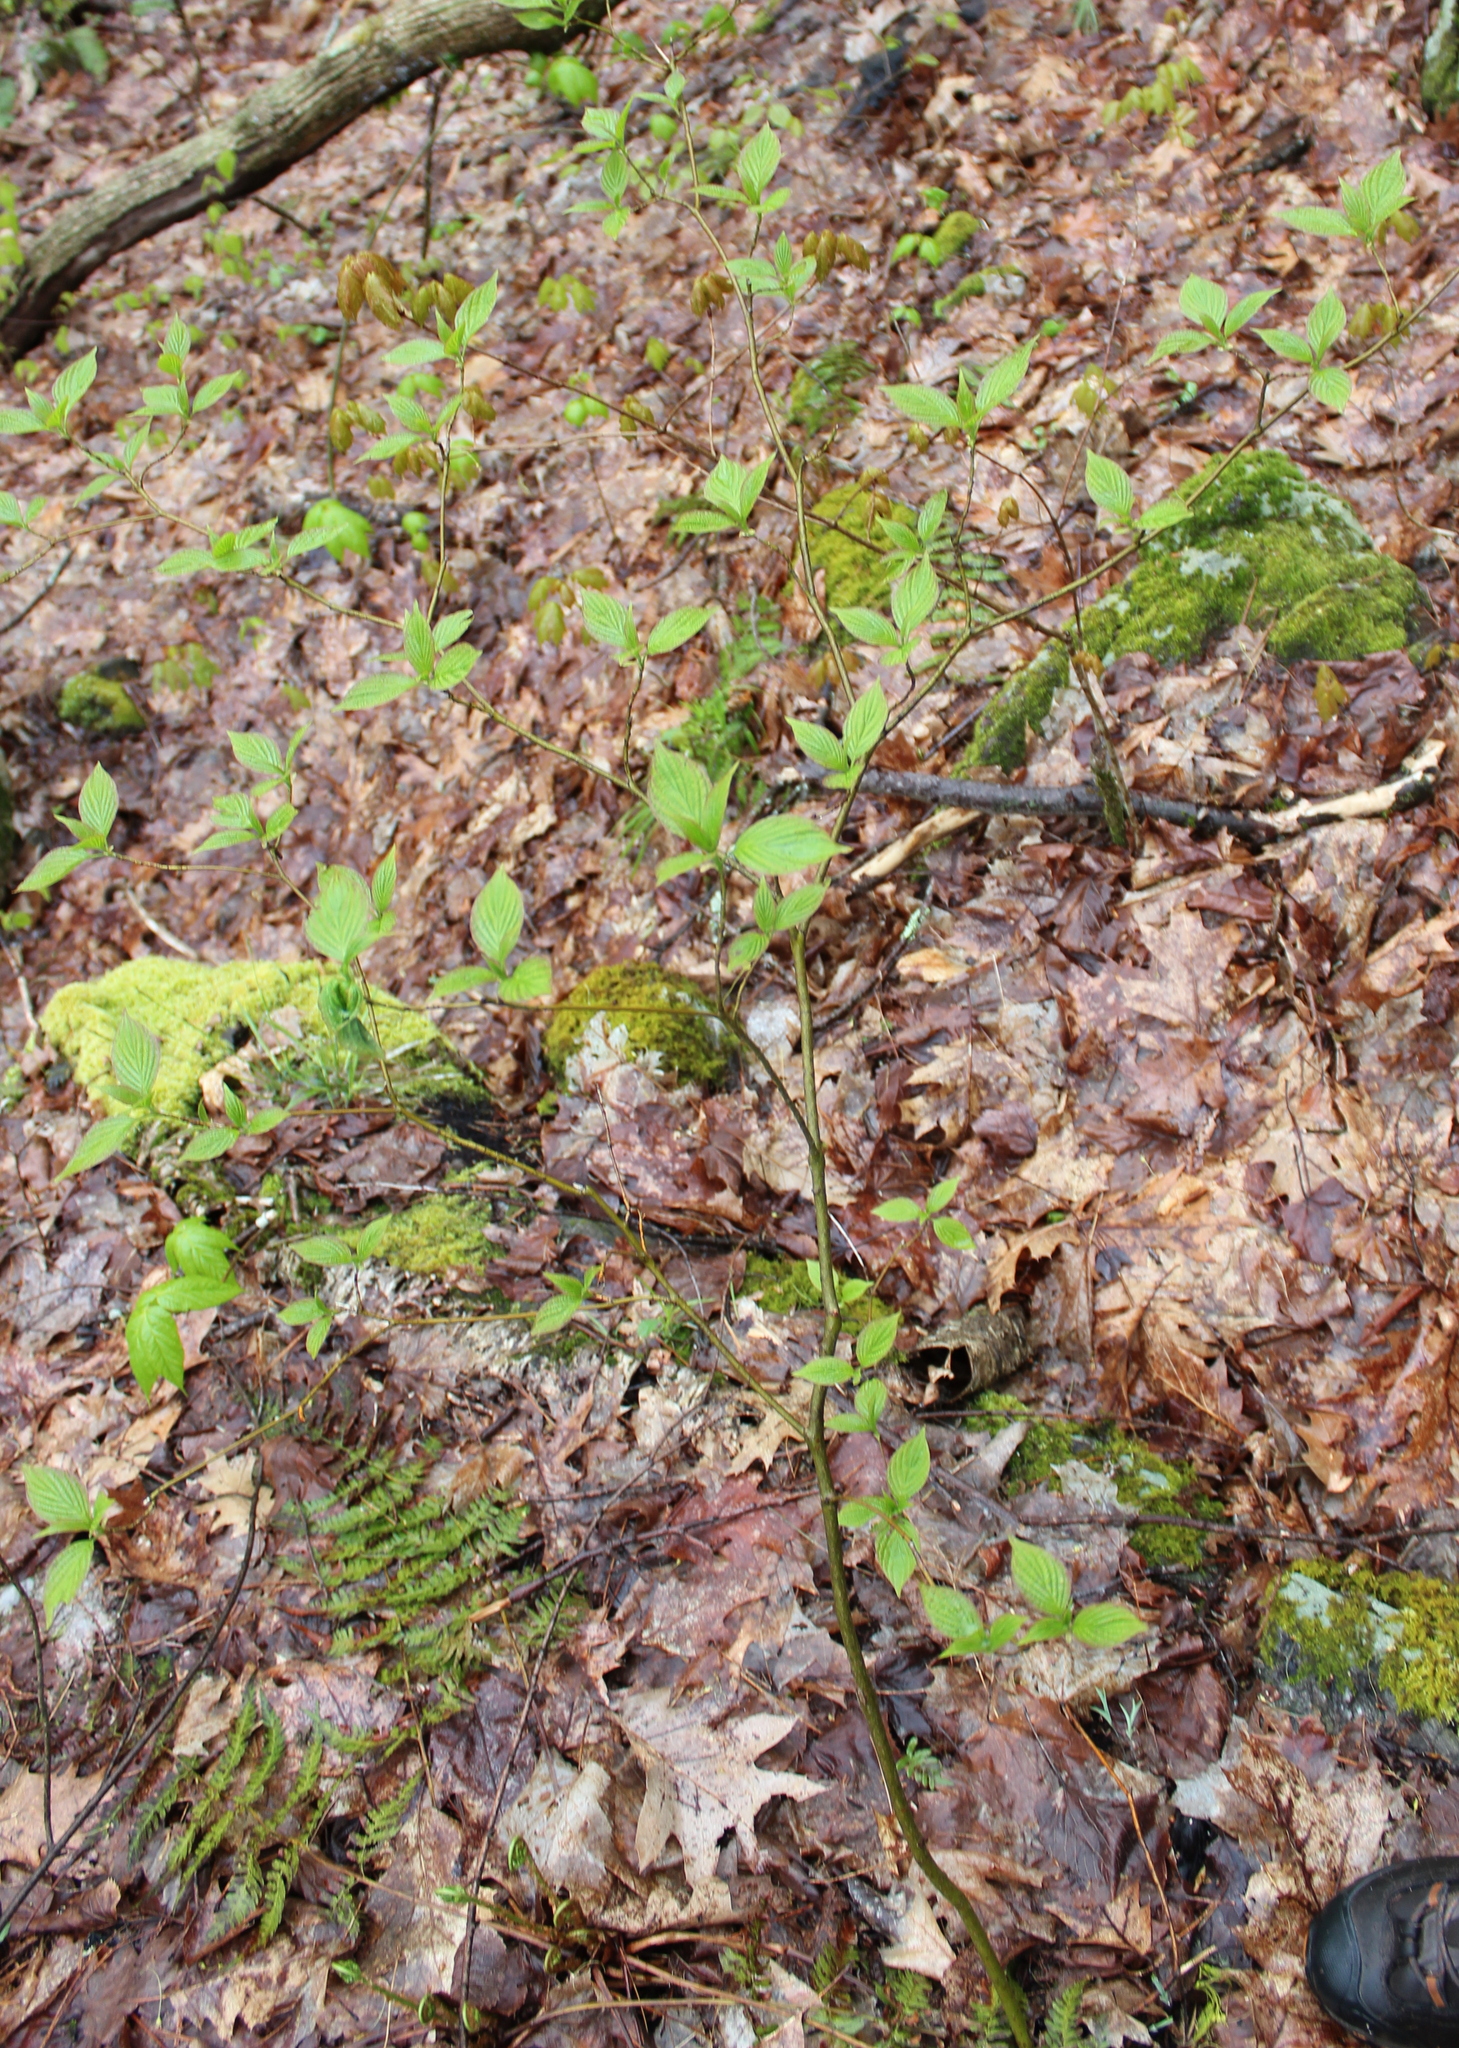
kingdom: Plantae
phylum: Tracheophyta
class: Magnoliopsida
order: Cornales
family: Cornaceae
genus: Cornus
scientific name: Cornus alternifolia
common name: Pagoda dogwood
